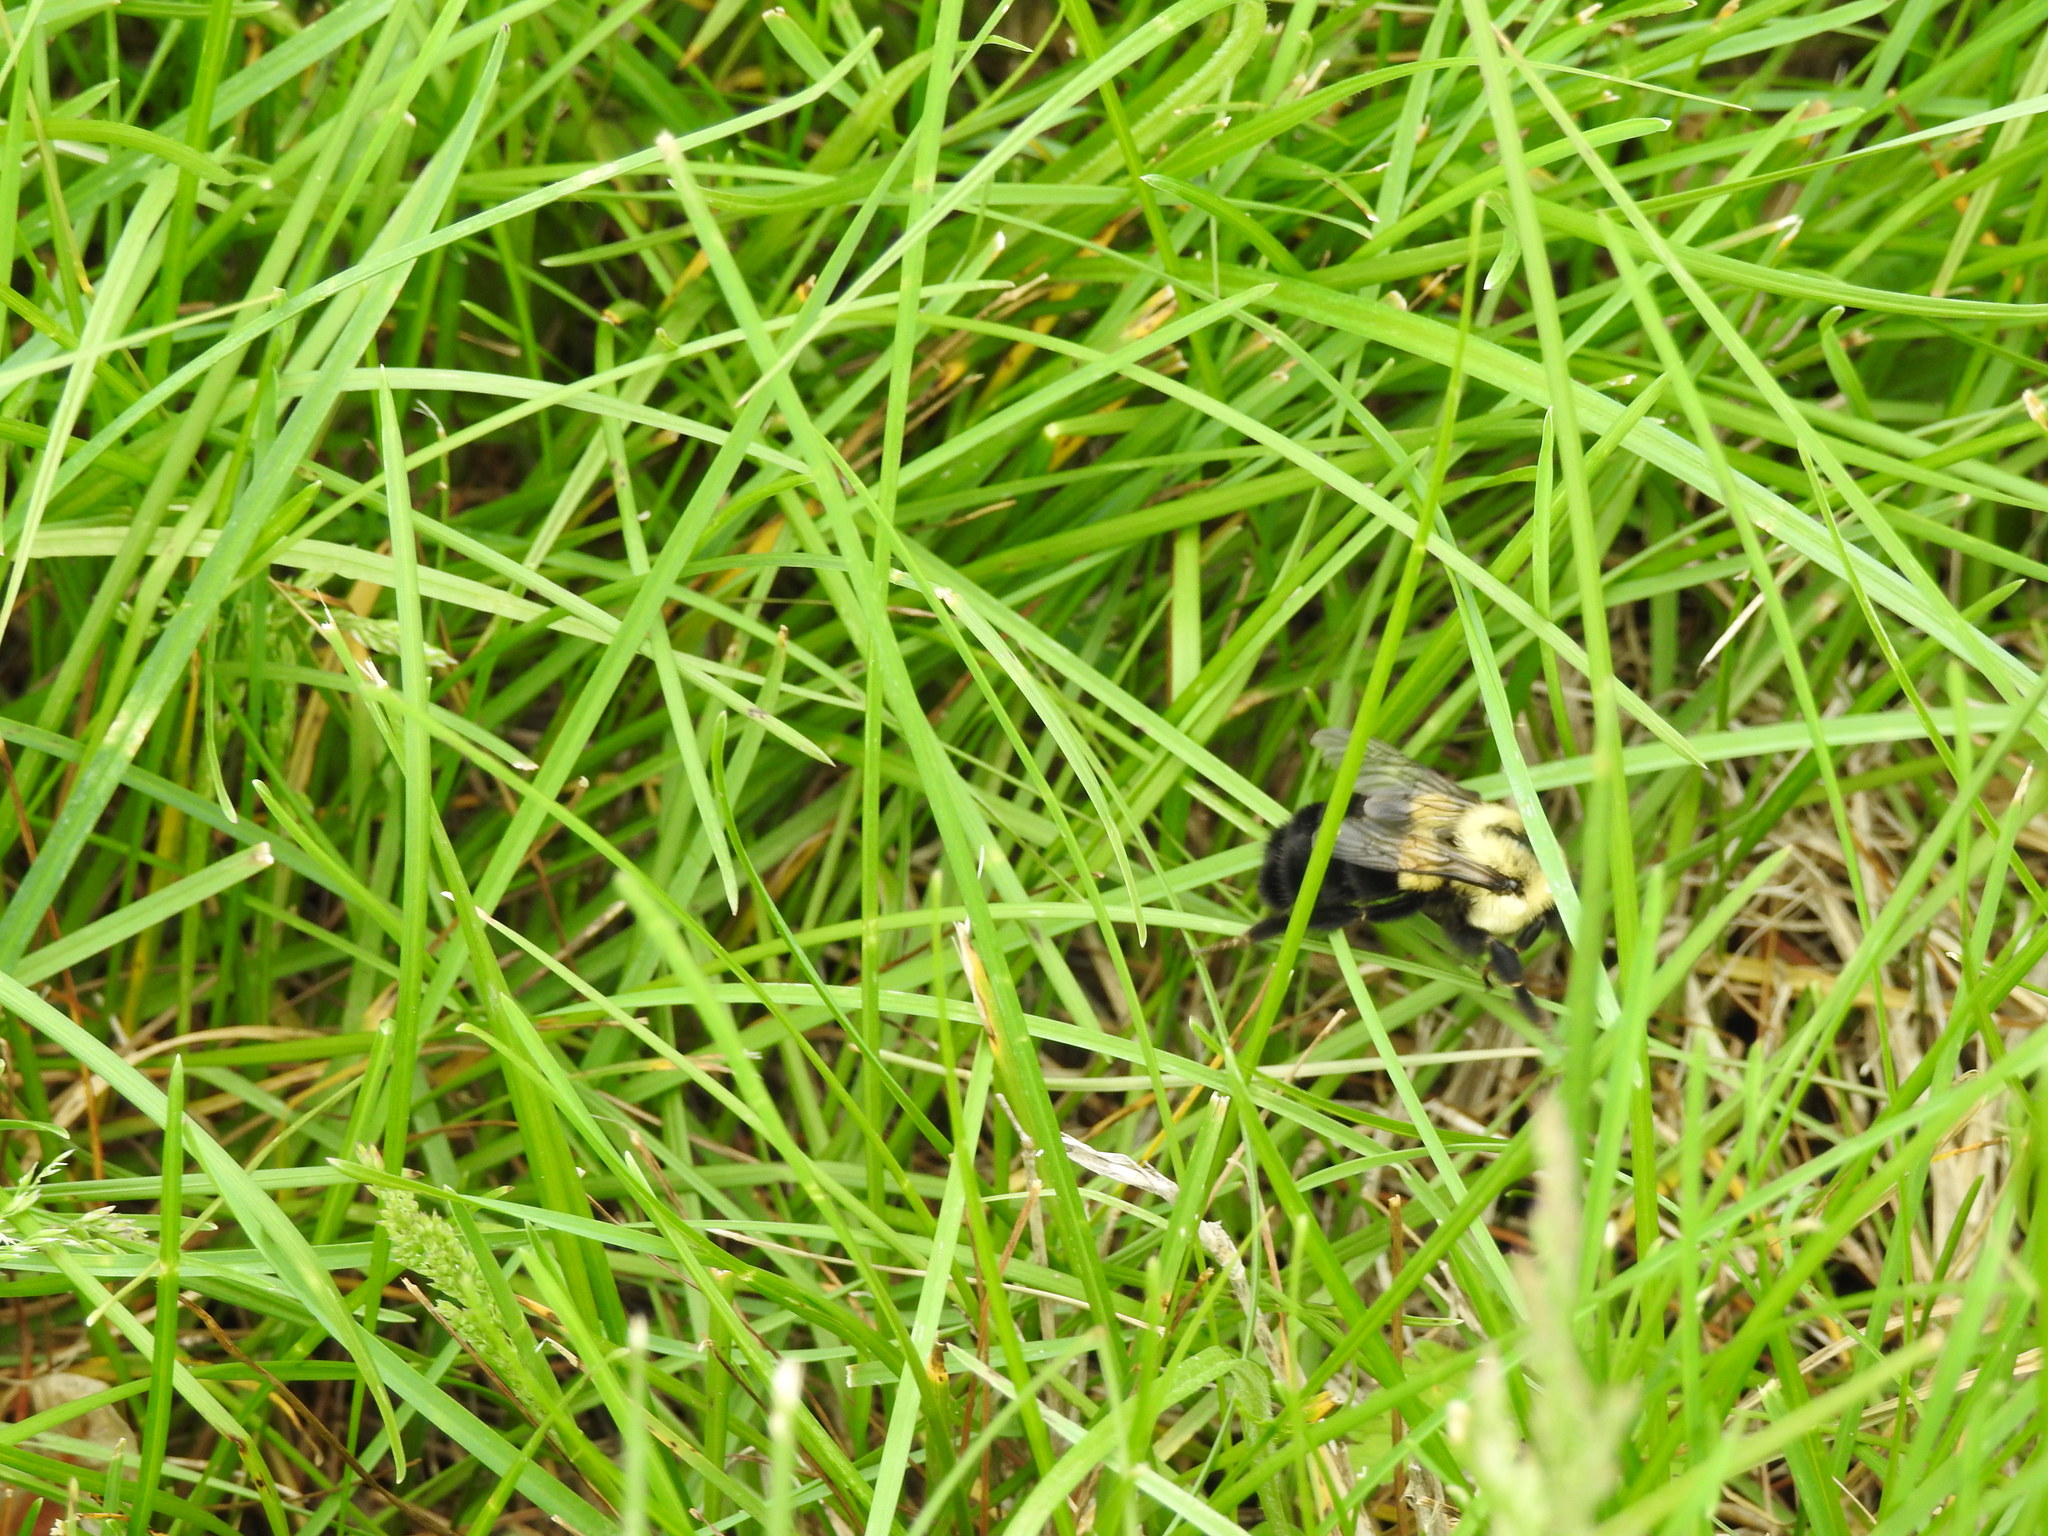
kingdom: Animalia
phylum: Arthropoda
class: Insecta
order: Hymenoptera
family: Apidae
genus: Bombus
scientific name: Bombus impatiens
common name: Common eastern bumble bee
